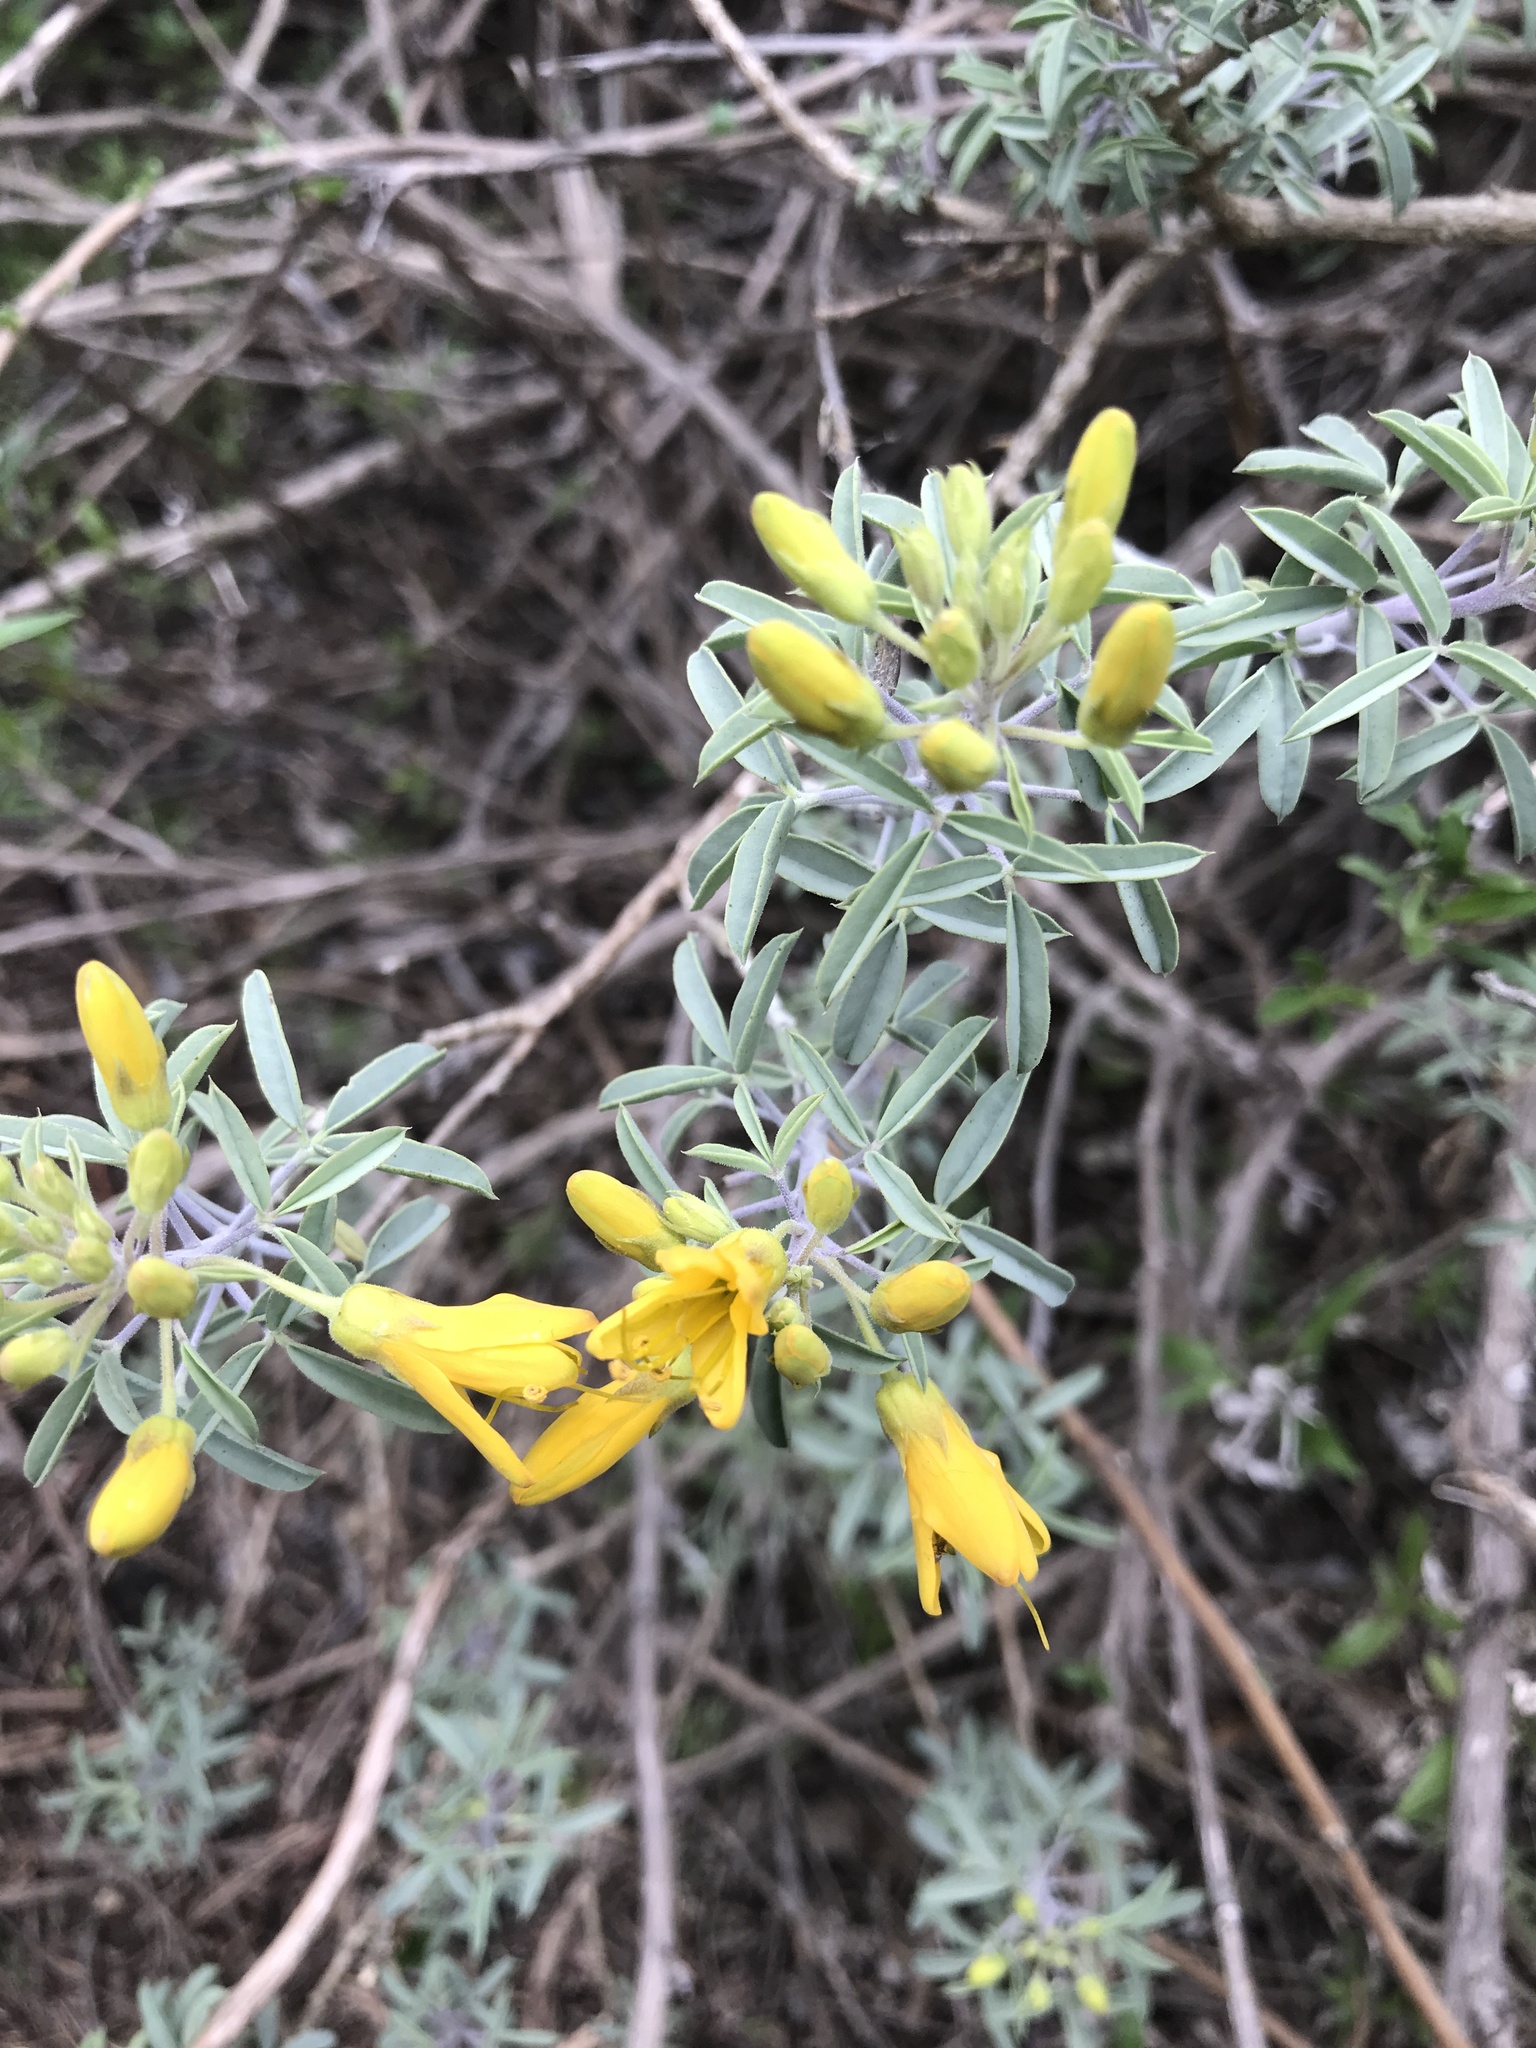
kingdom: Plantae
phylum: Tracheophyta
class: Magnoliopsida
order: Brassicales
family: Cleomaceae
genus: Cleomella
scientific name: Cleomella arborea
